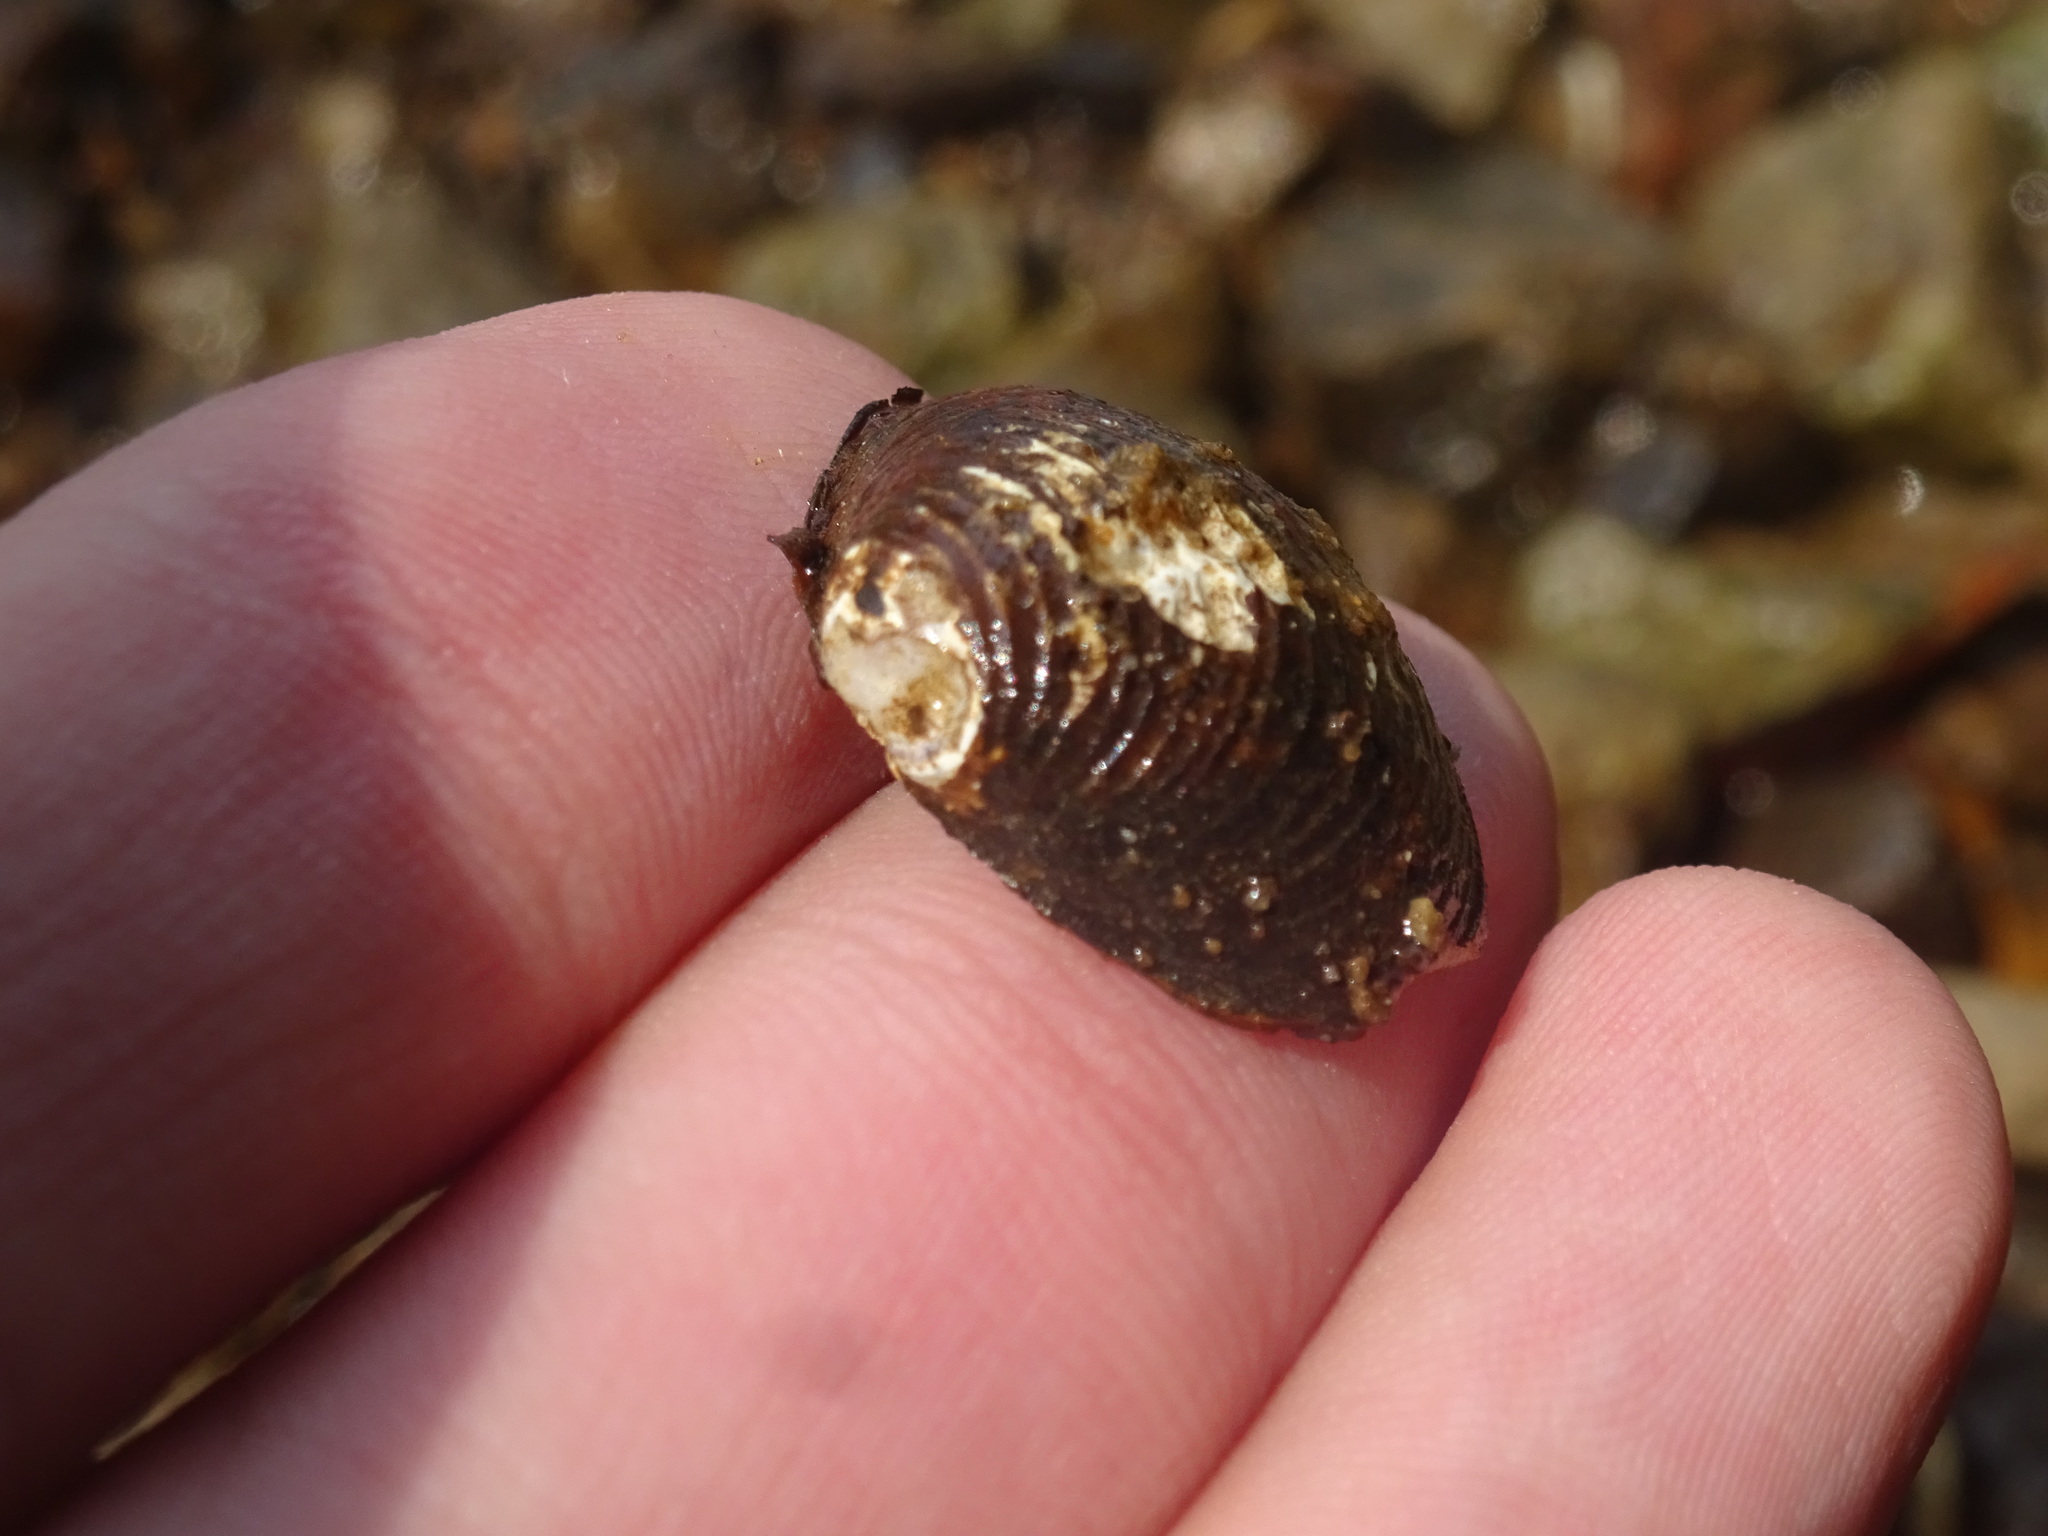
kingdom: Animalia
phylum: Mollusca
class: Bivalvia
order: Venerida
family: Cyrenidae
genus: Corbicula
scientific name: Corbicula fluminea
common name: Asian clam
